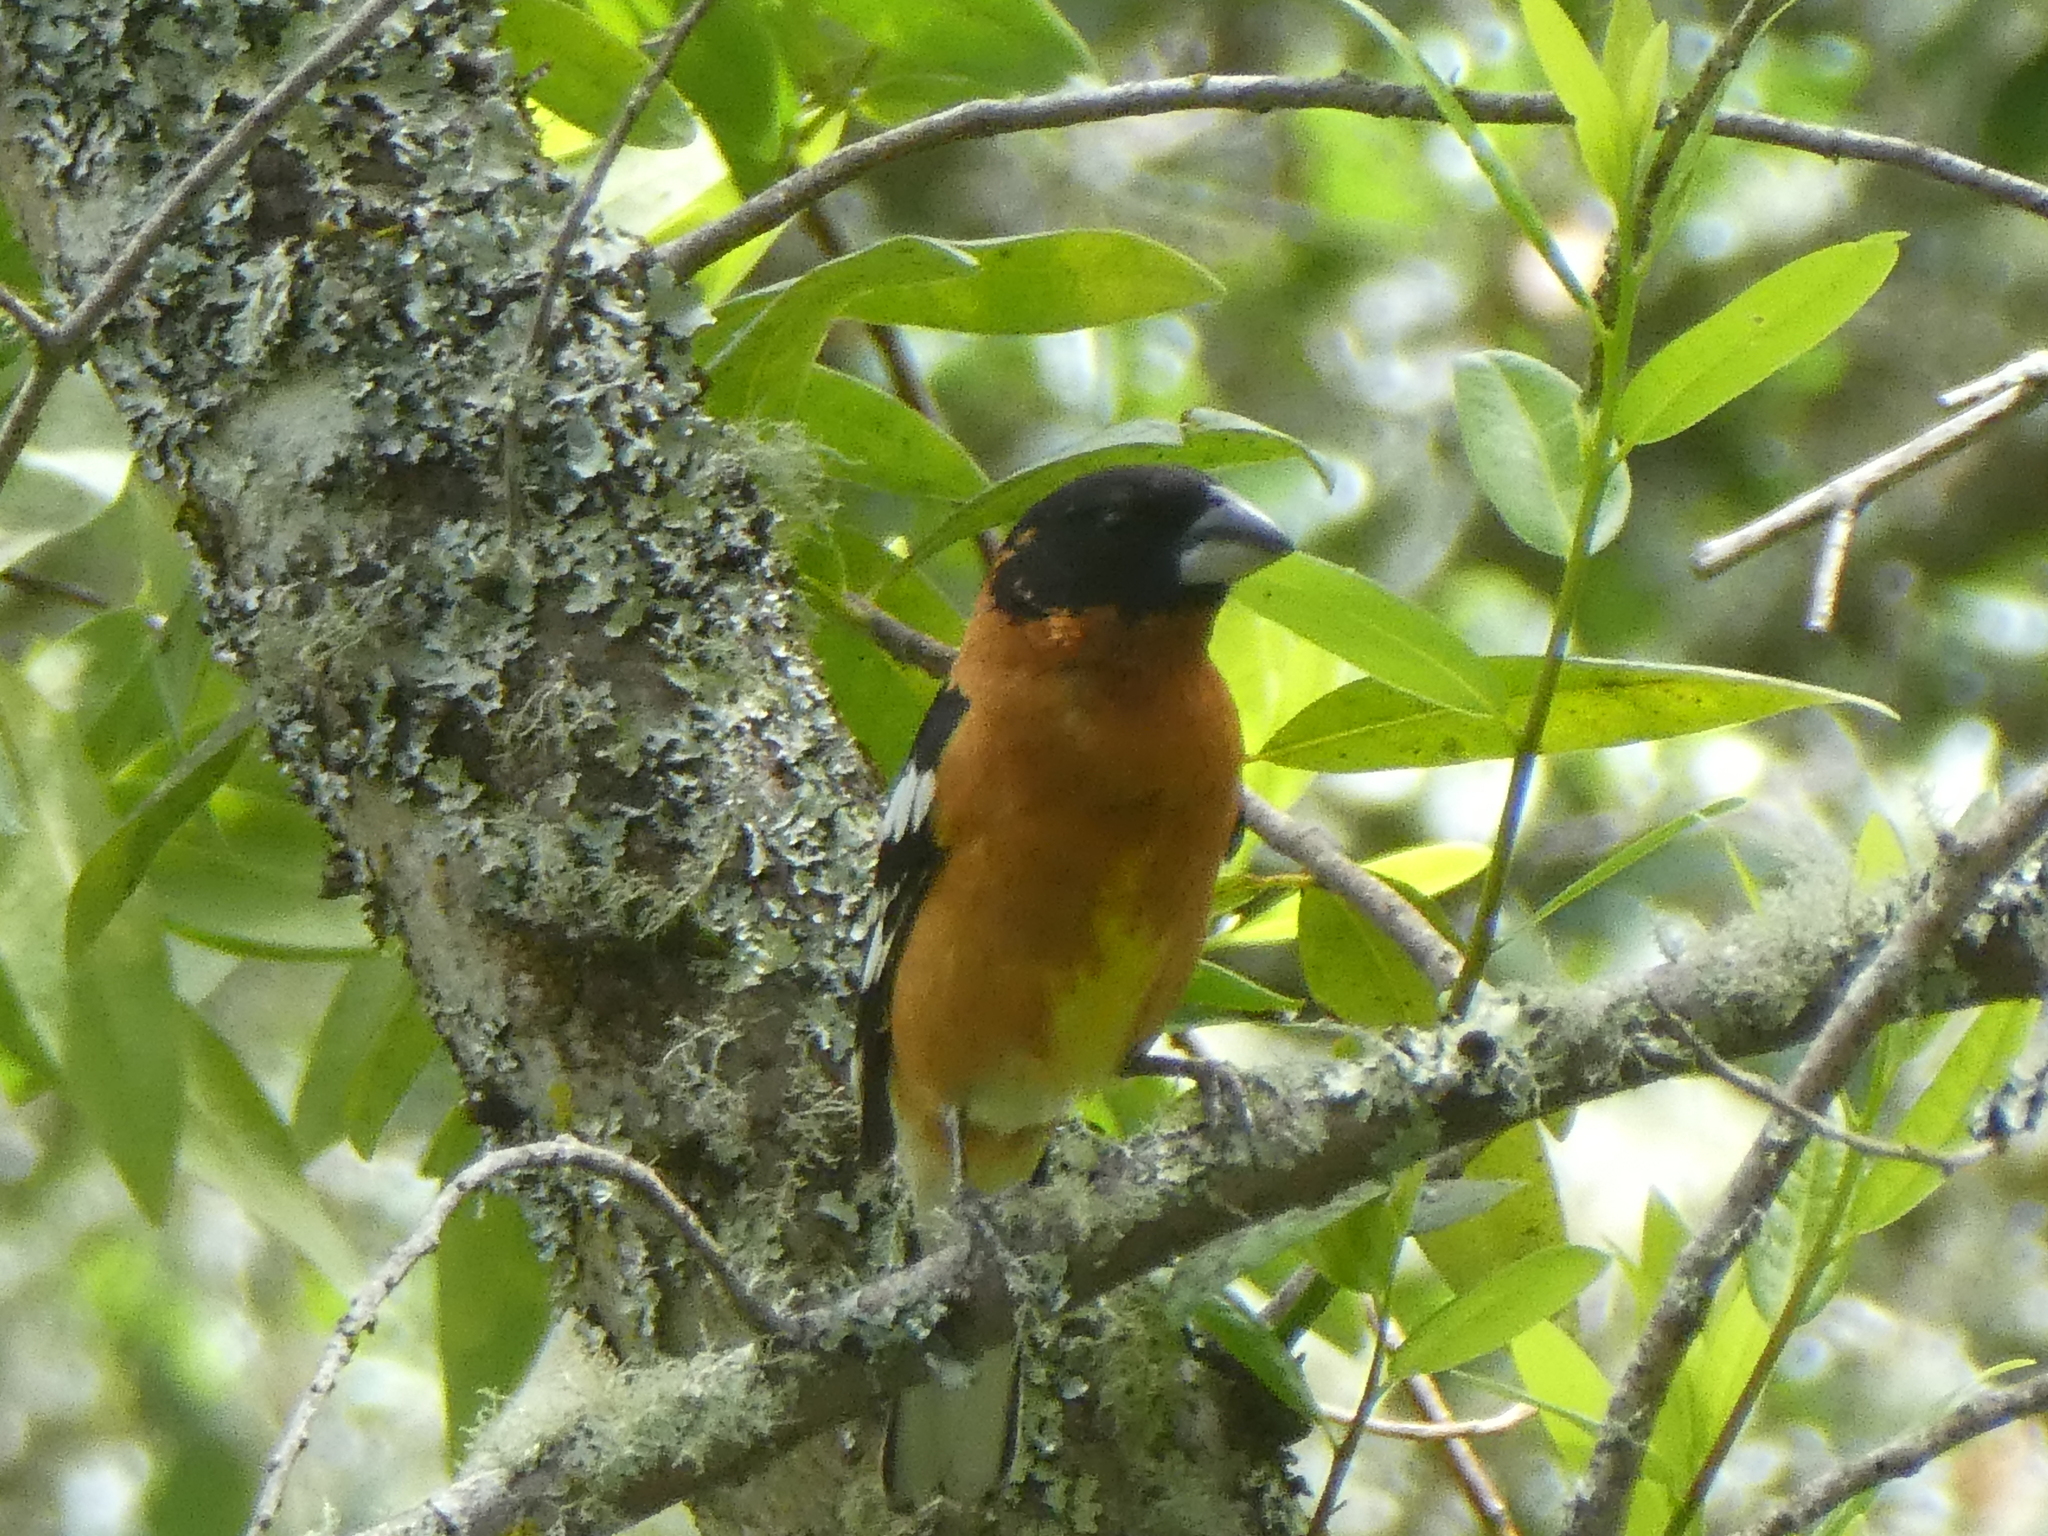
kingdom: Animalia
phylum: Chordata
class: Aves
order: Passeriformes
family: Cardinalidae
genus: Pheucticus
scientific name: Pheucticus melanocephalus
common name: Black-headed grosbeak
